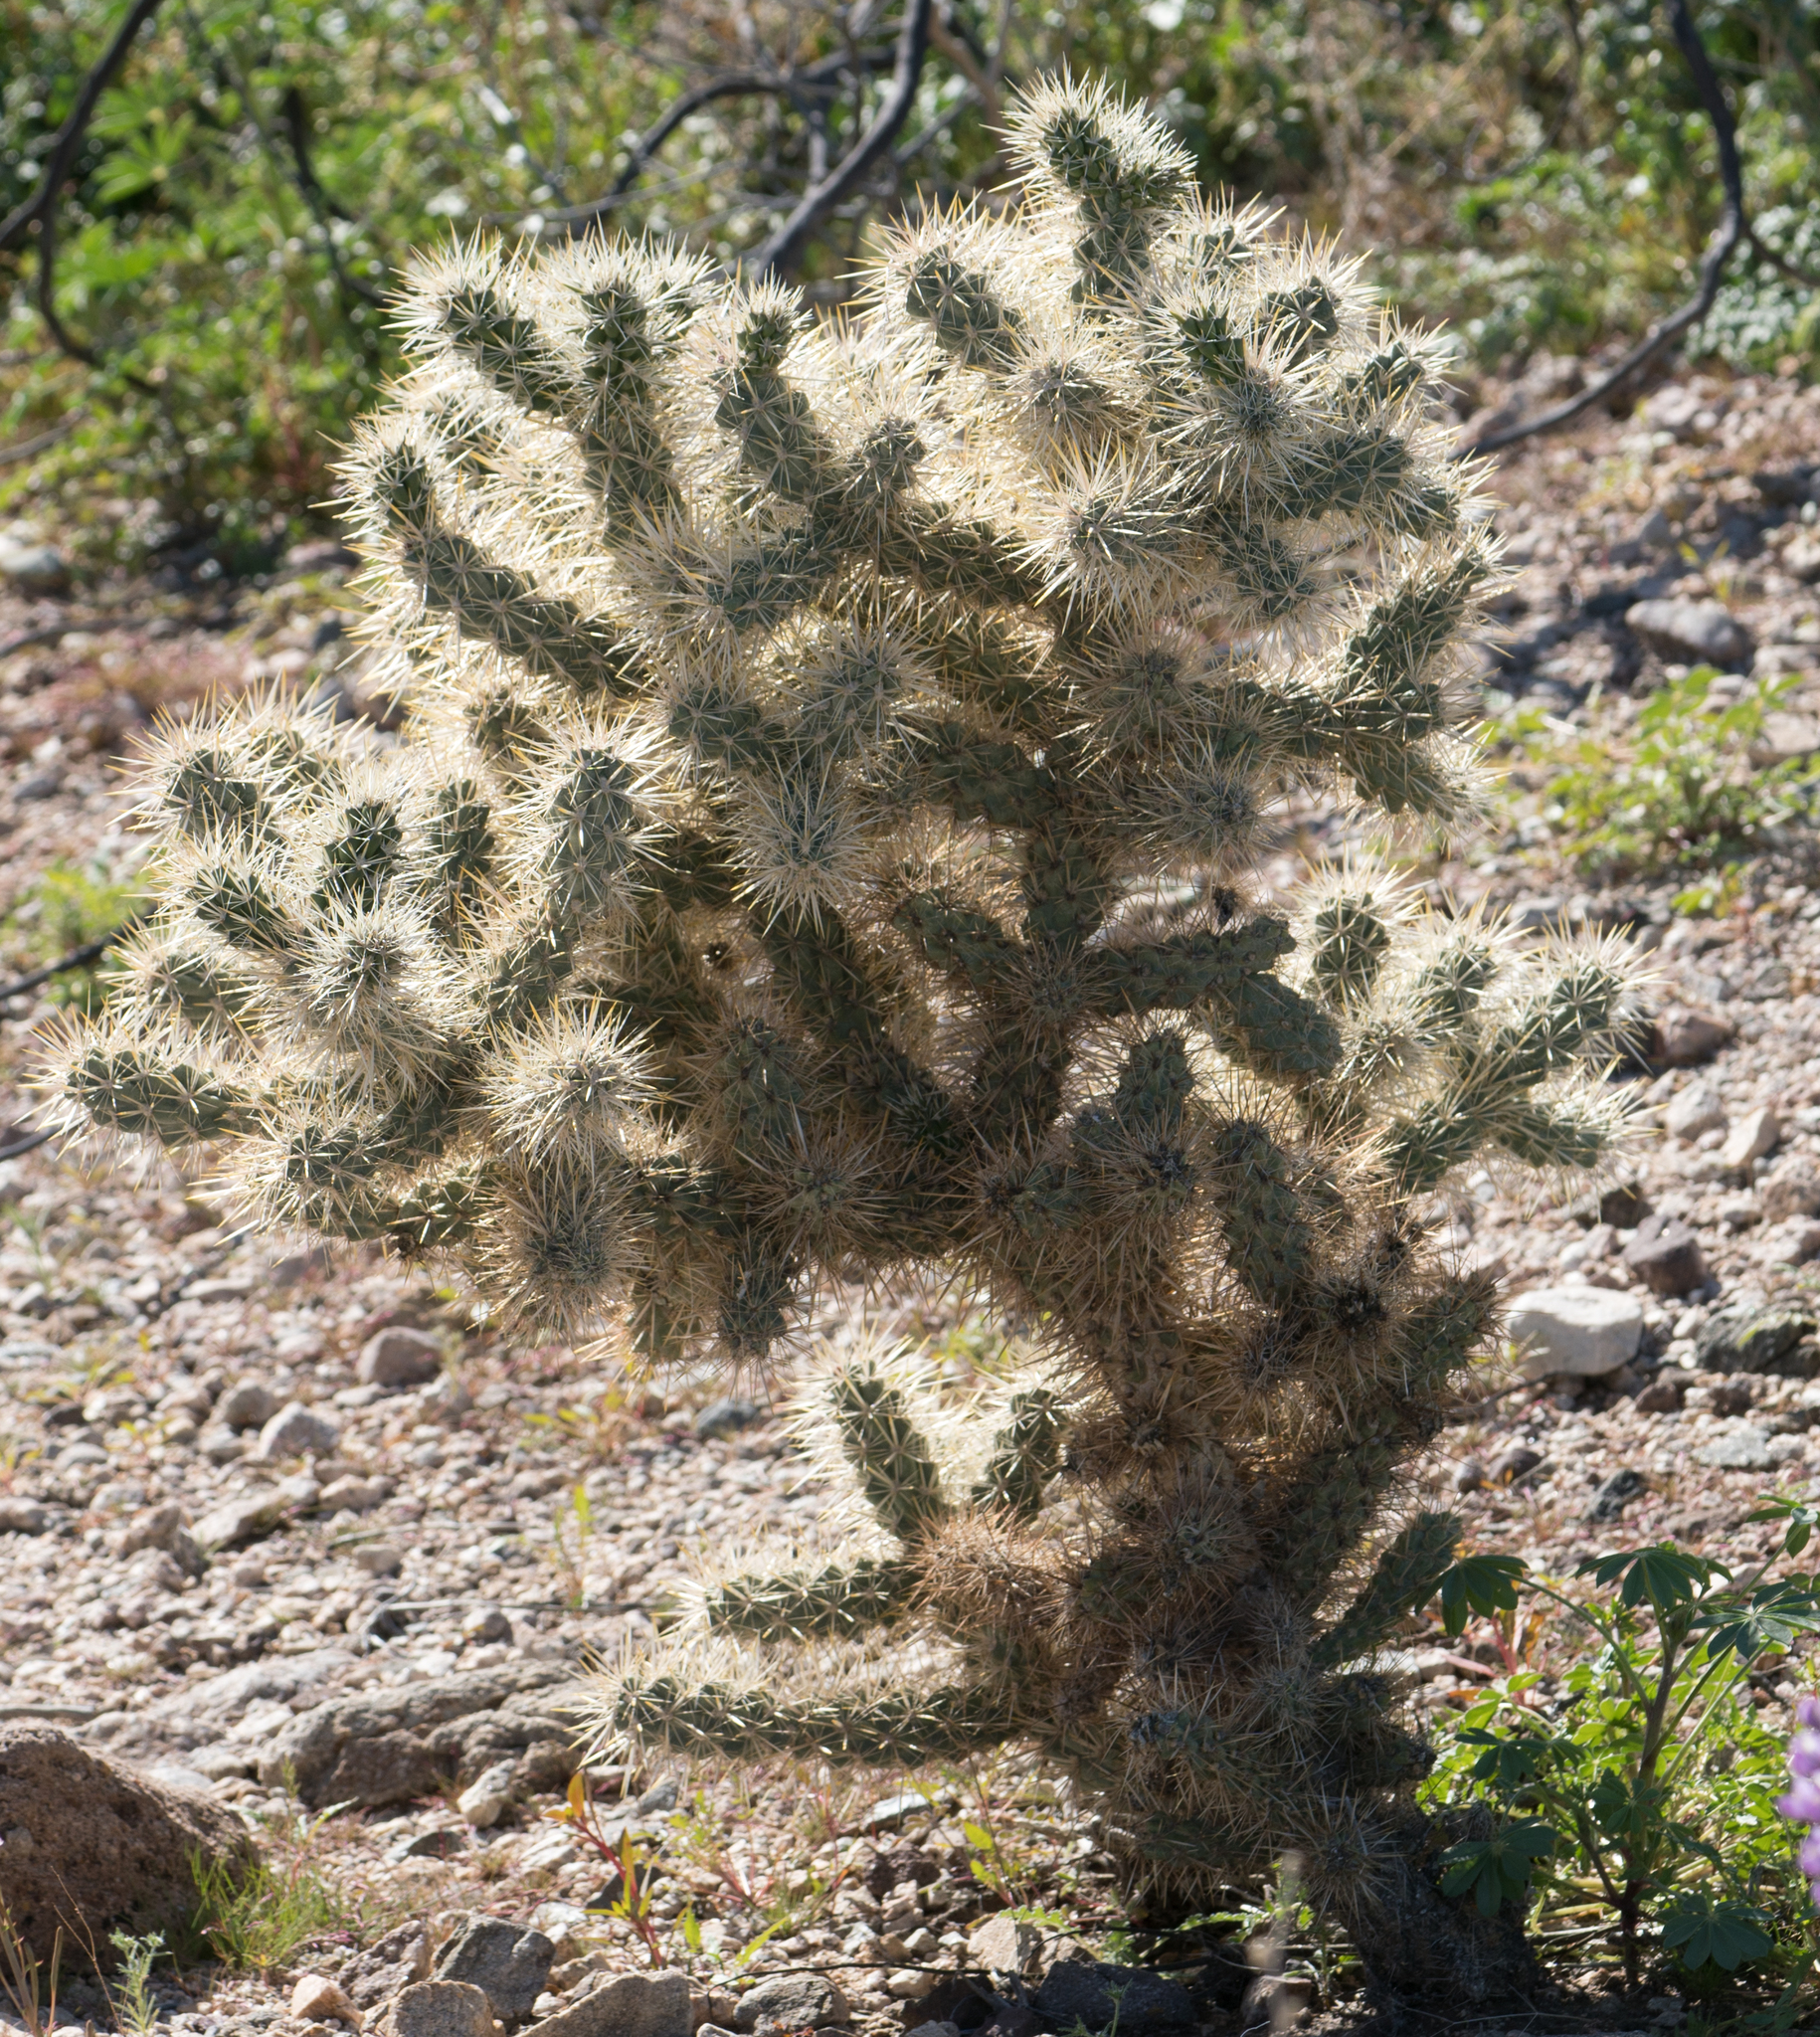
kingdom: Plantae
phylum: Tracheophyta
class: Magnoliopsida
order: Caryophyllales
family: Cactaceae
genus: Cylindropuntia
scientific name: Cylindropuntia echinocarpa
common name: Ground cholla
